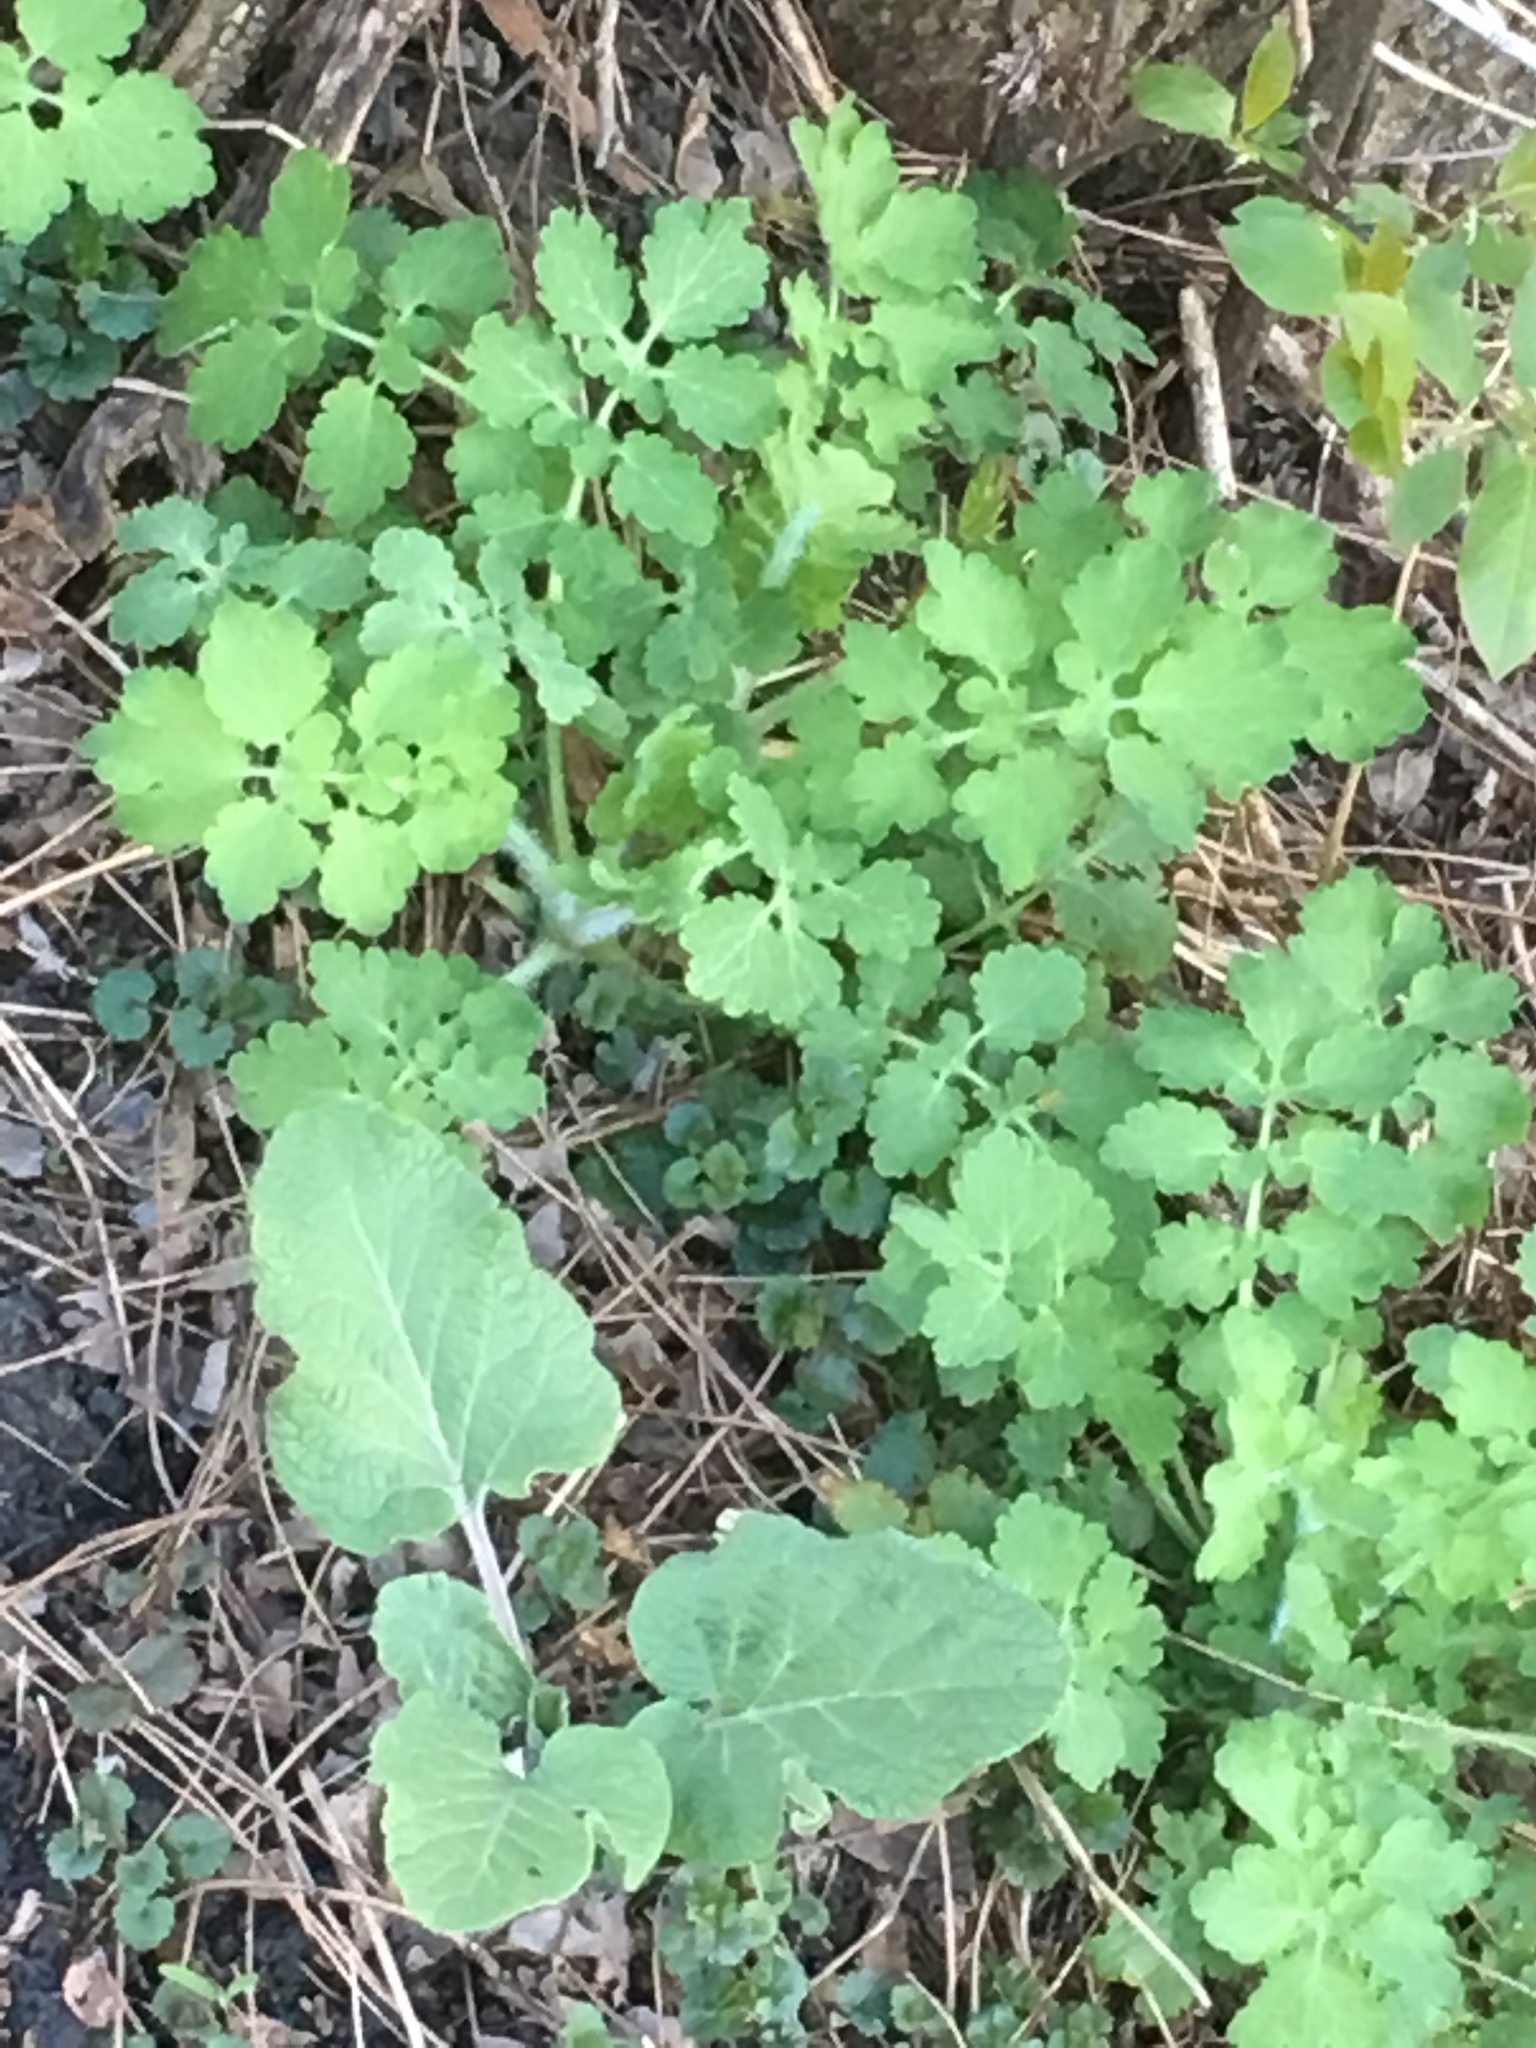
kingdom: Plantae
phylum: Tracheophyta
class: Magnoliopsida
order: Ranunculales
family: Papaveraceae
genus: Chelidonium
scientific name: Chelidonium majus
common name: Greater celandine
